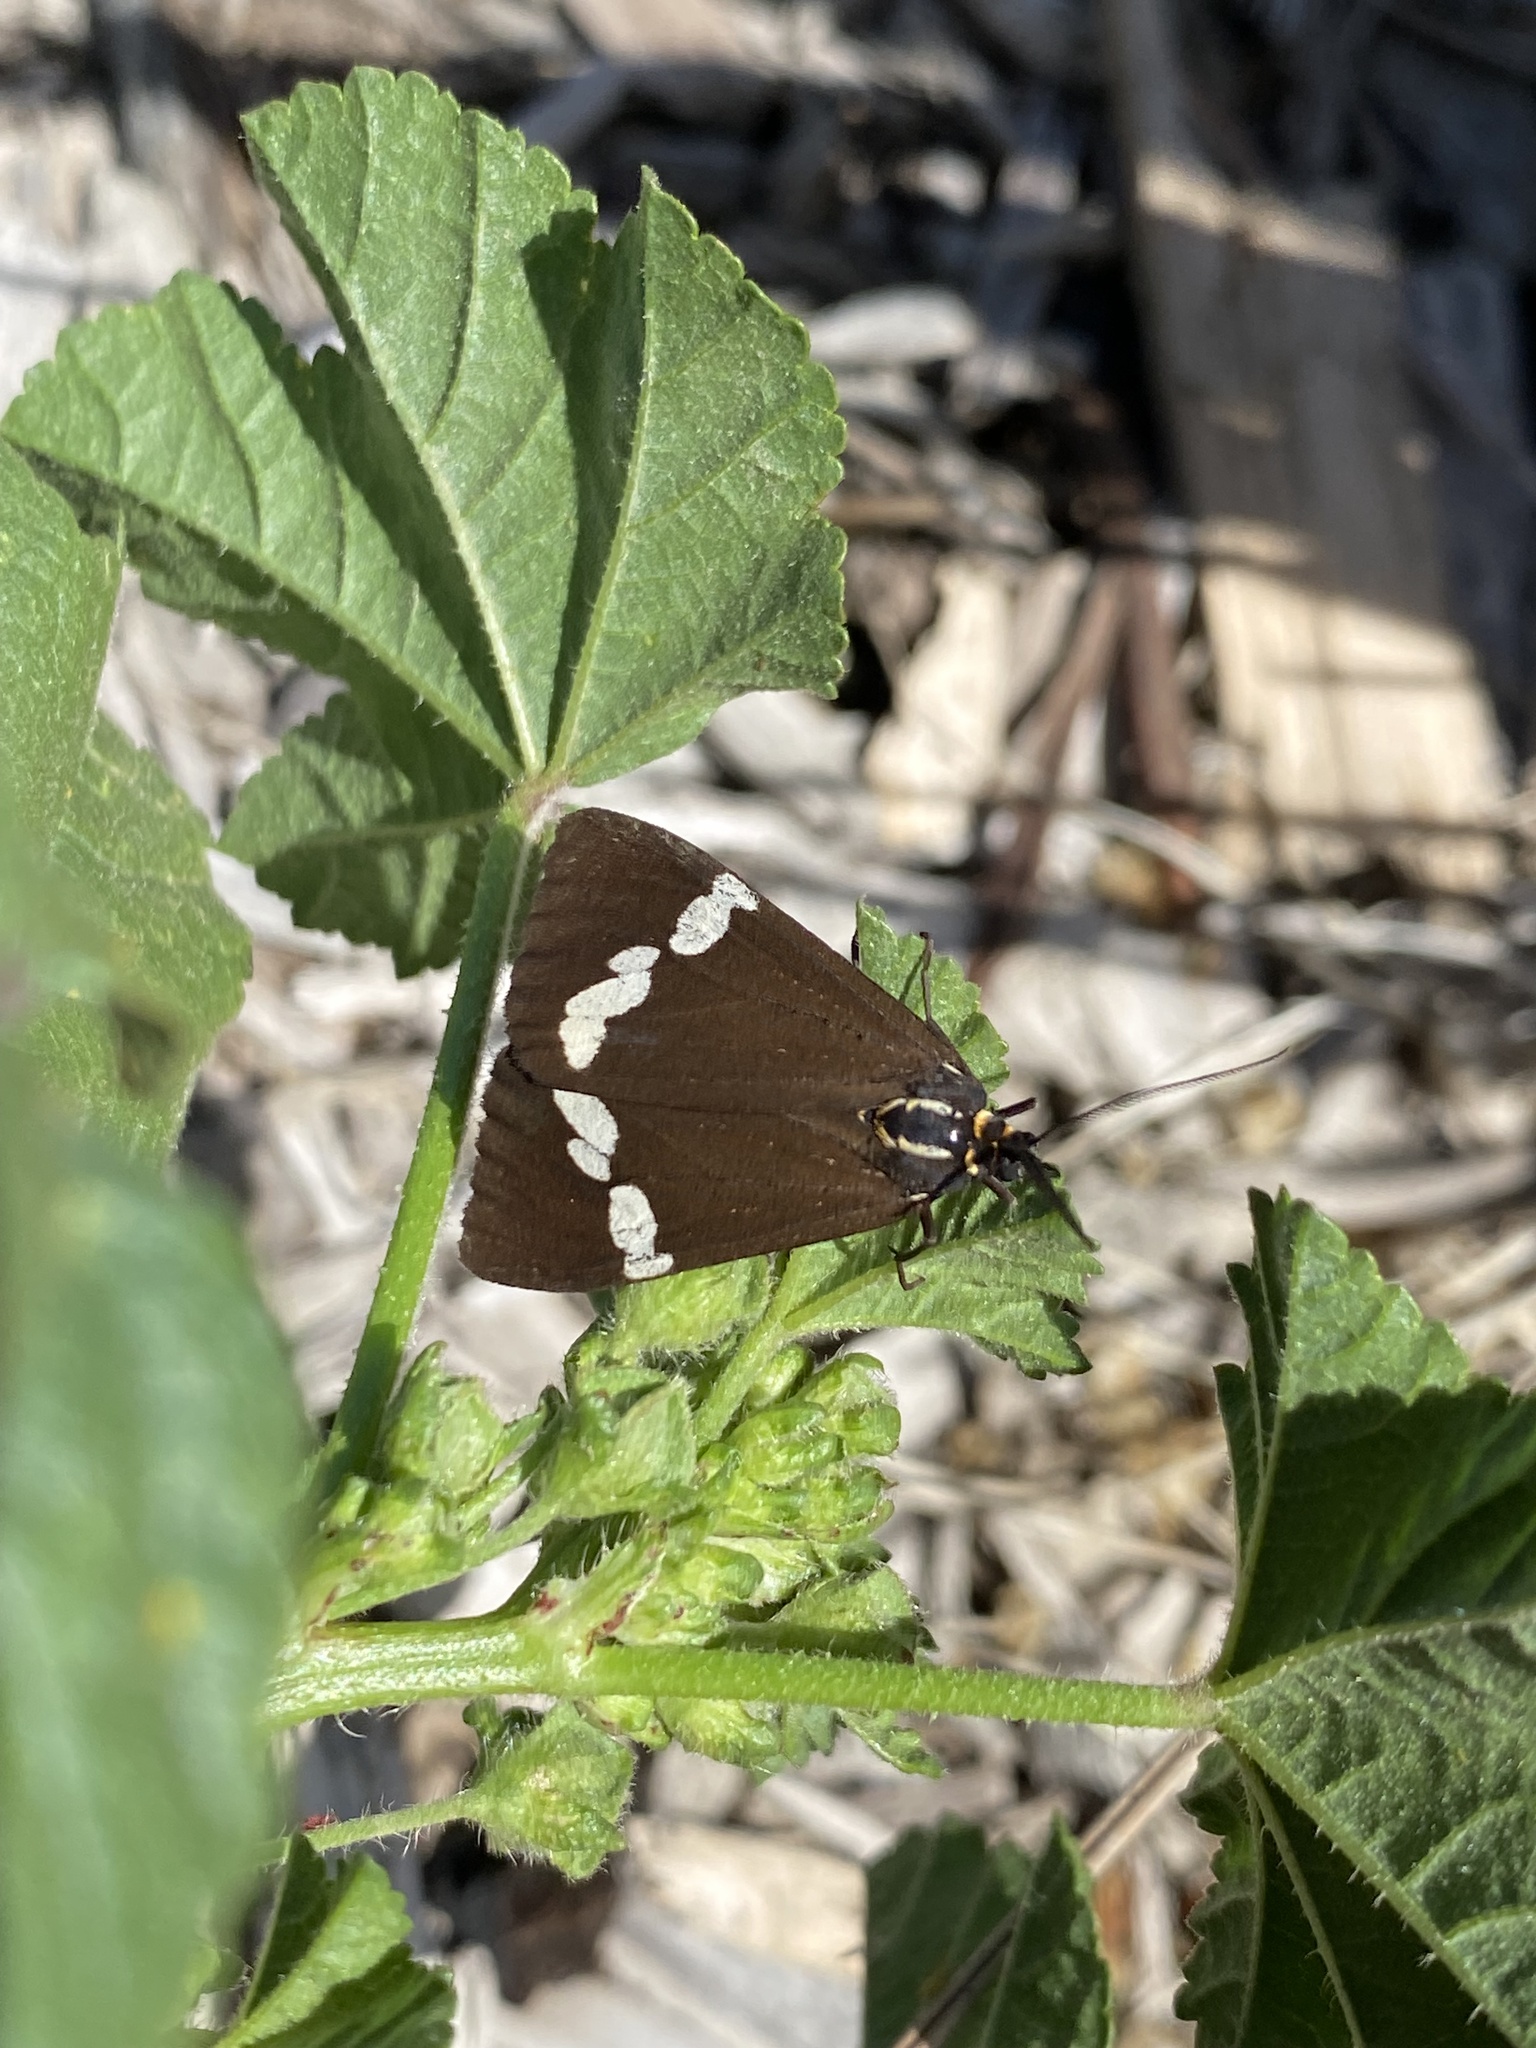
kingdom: Animalia
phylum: Arthropoda
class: Insecta
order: Lepidoptera
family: Erebidae
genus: Nyctemera
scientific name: Nyctemera annulatum
